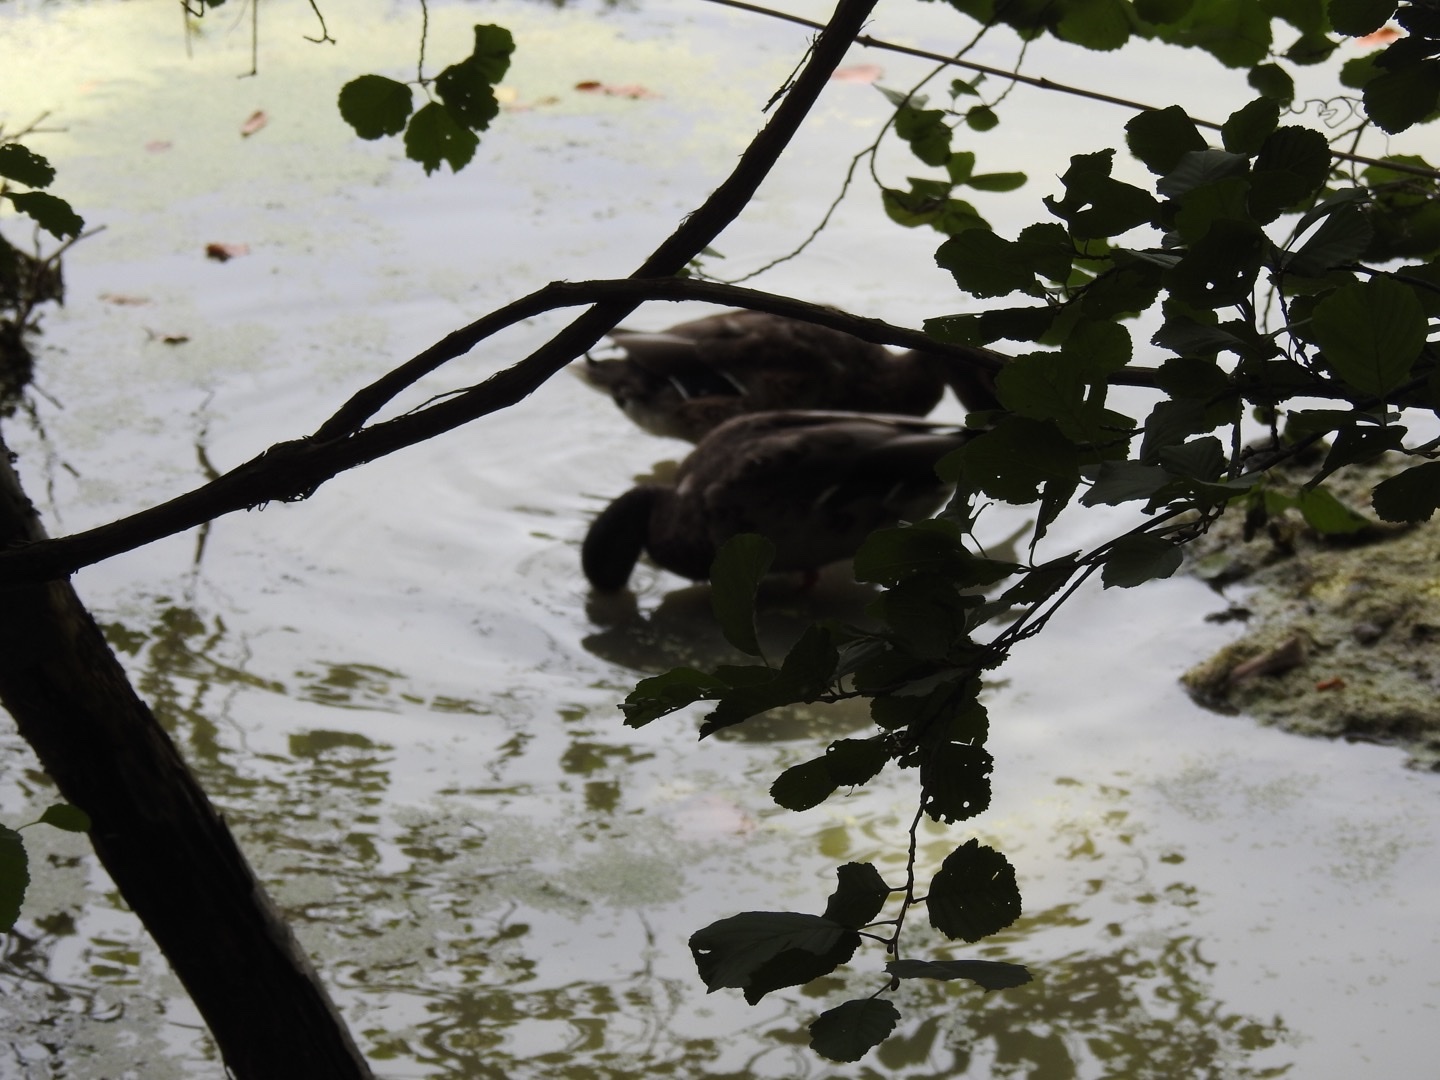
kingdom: Animalia
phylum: Chordata
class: Aves
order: Anseriformes
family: Anatidae
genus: Anas
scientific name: Anas platyrhynchos
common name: Mallard
